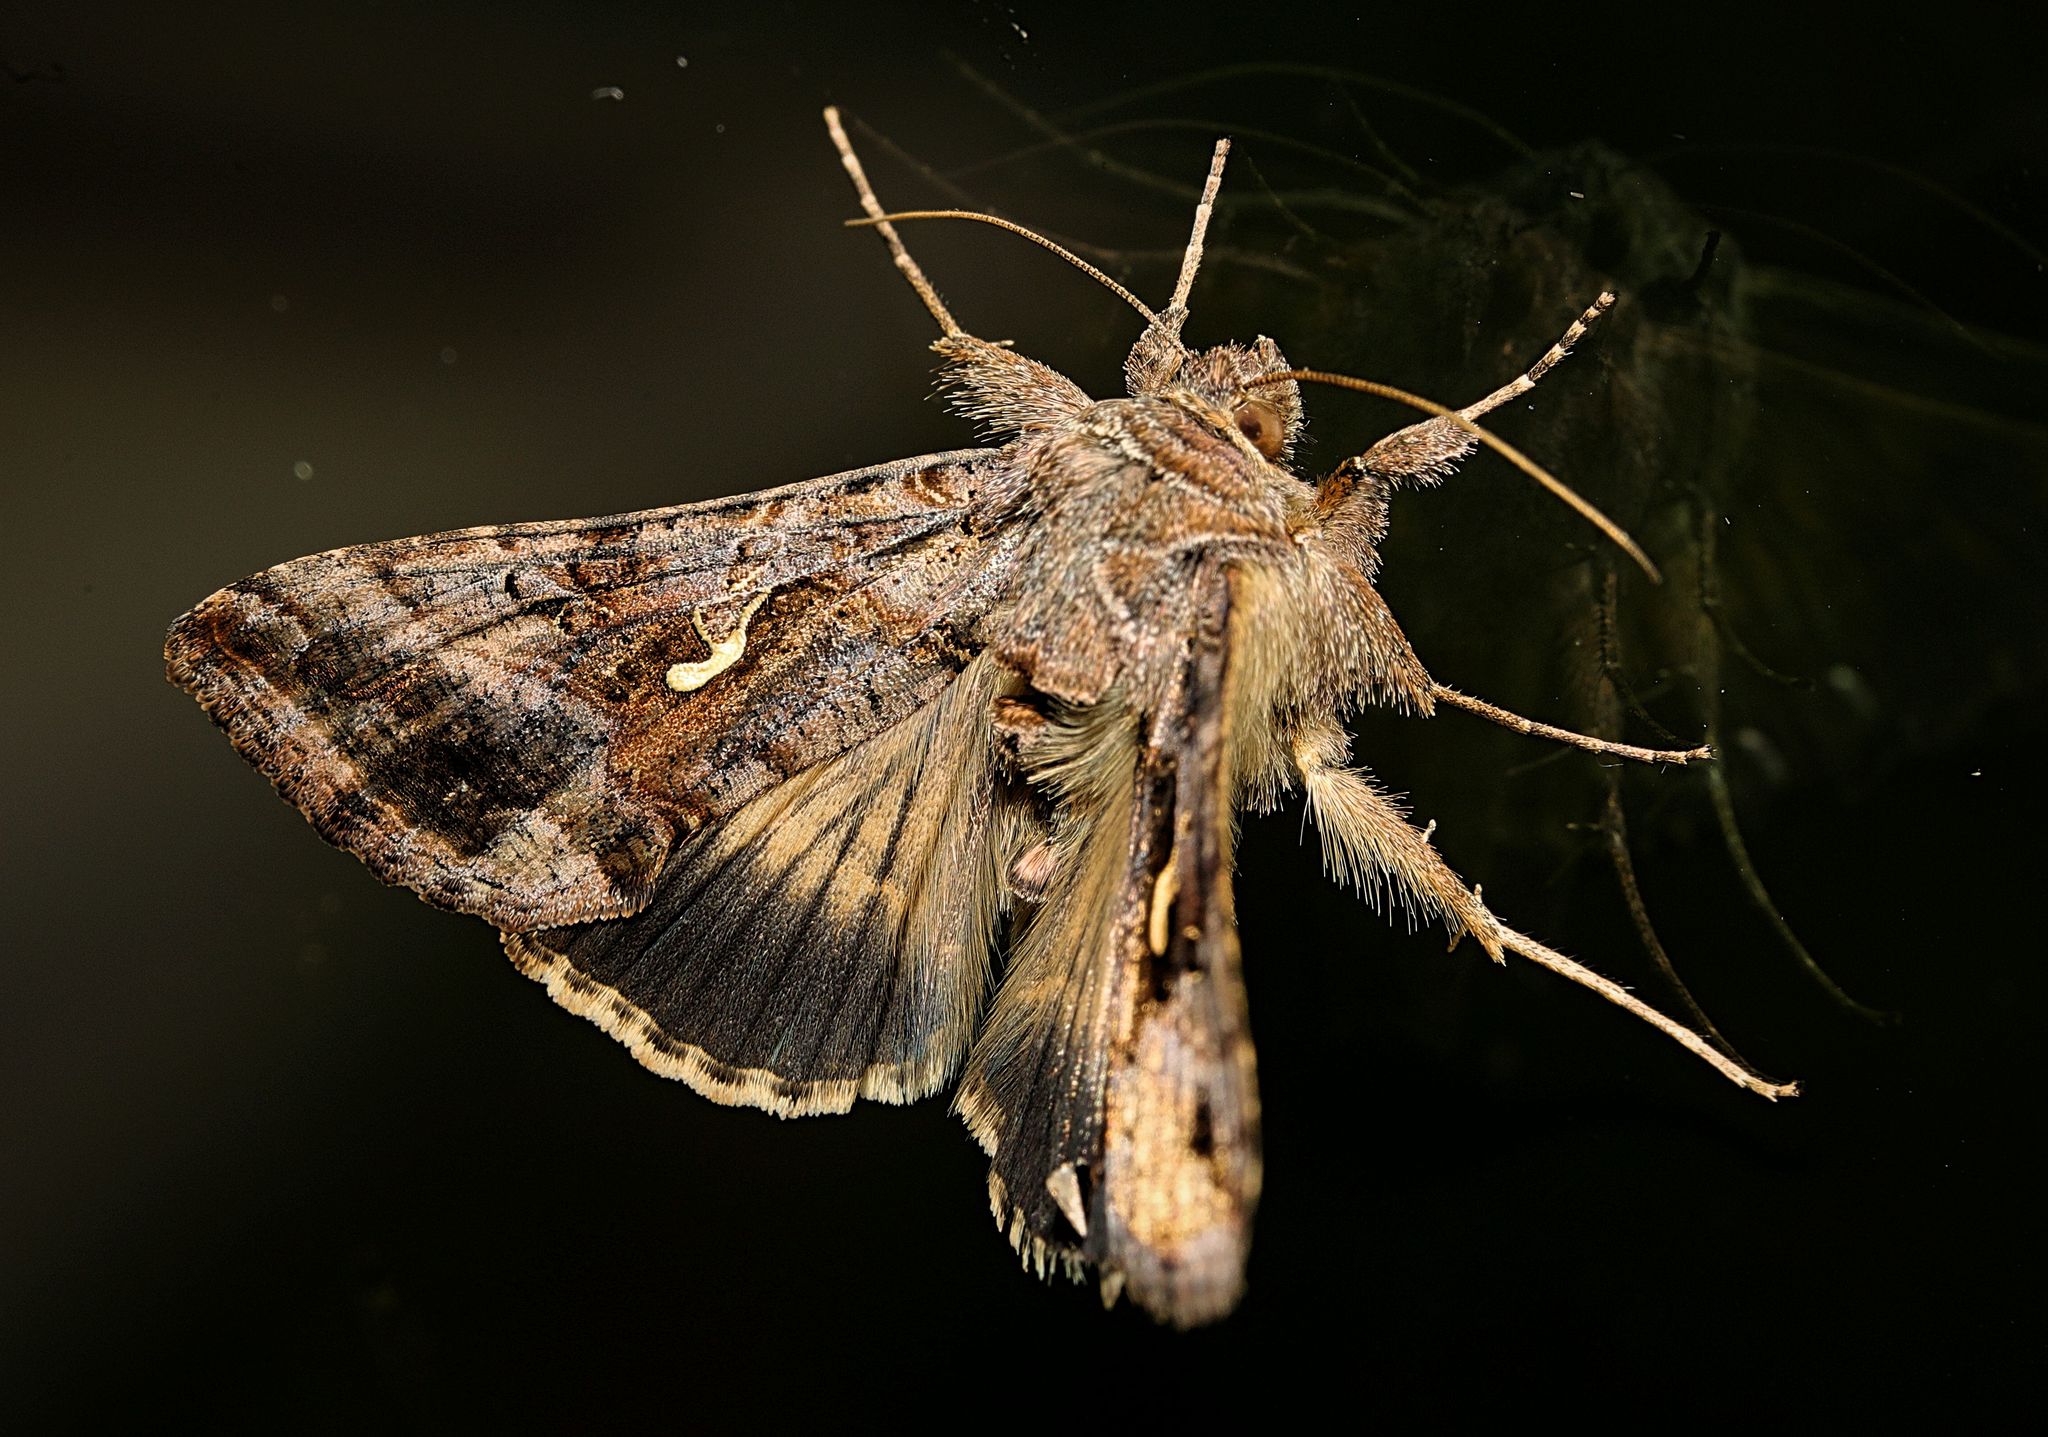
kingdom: Animalia
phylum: Arthropoda
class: Insecta
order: Lepidoptera
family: Noctuidae
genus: Autographa
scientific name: Autographa gamma
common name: Silver y
